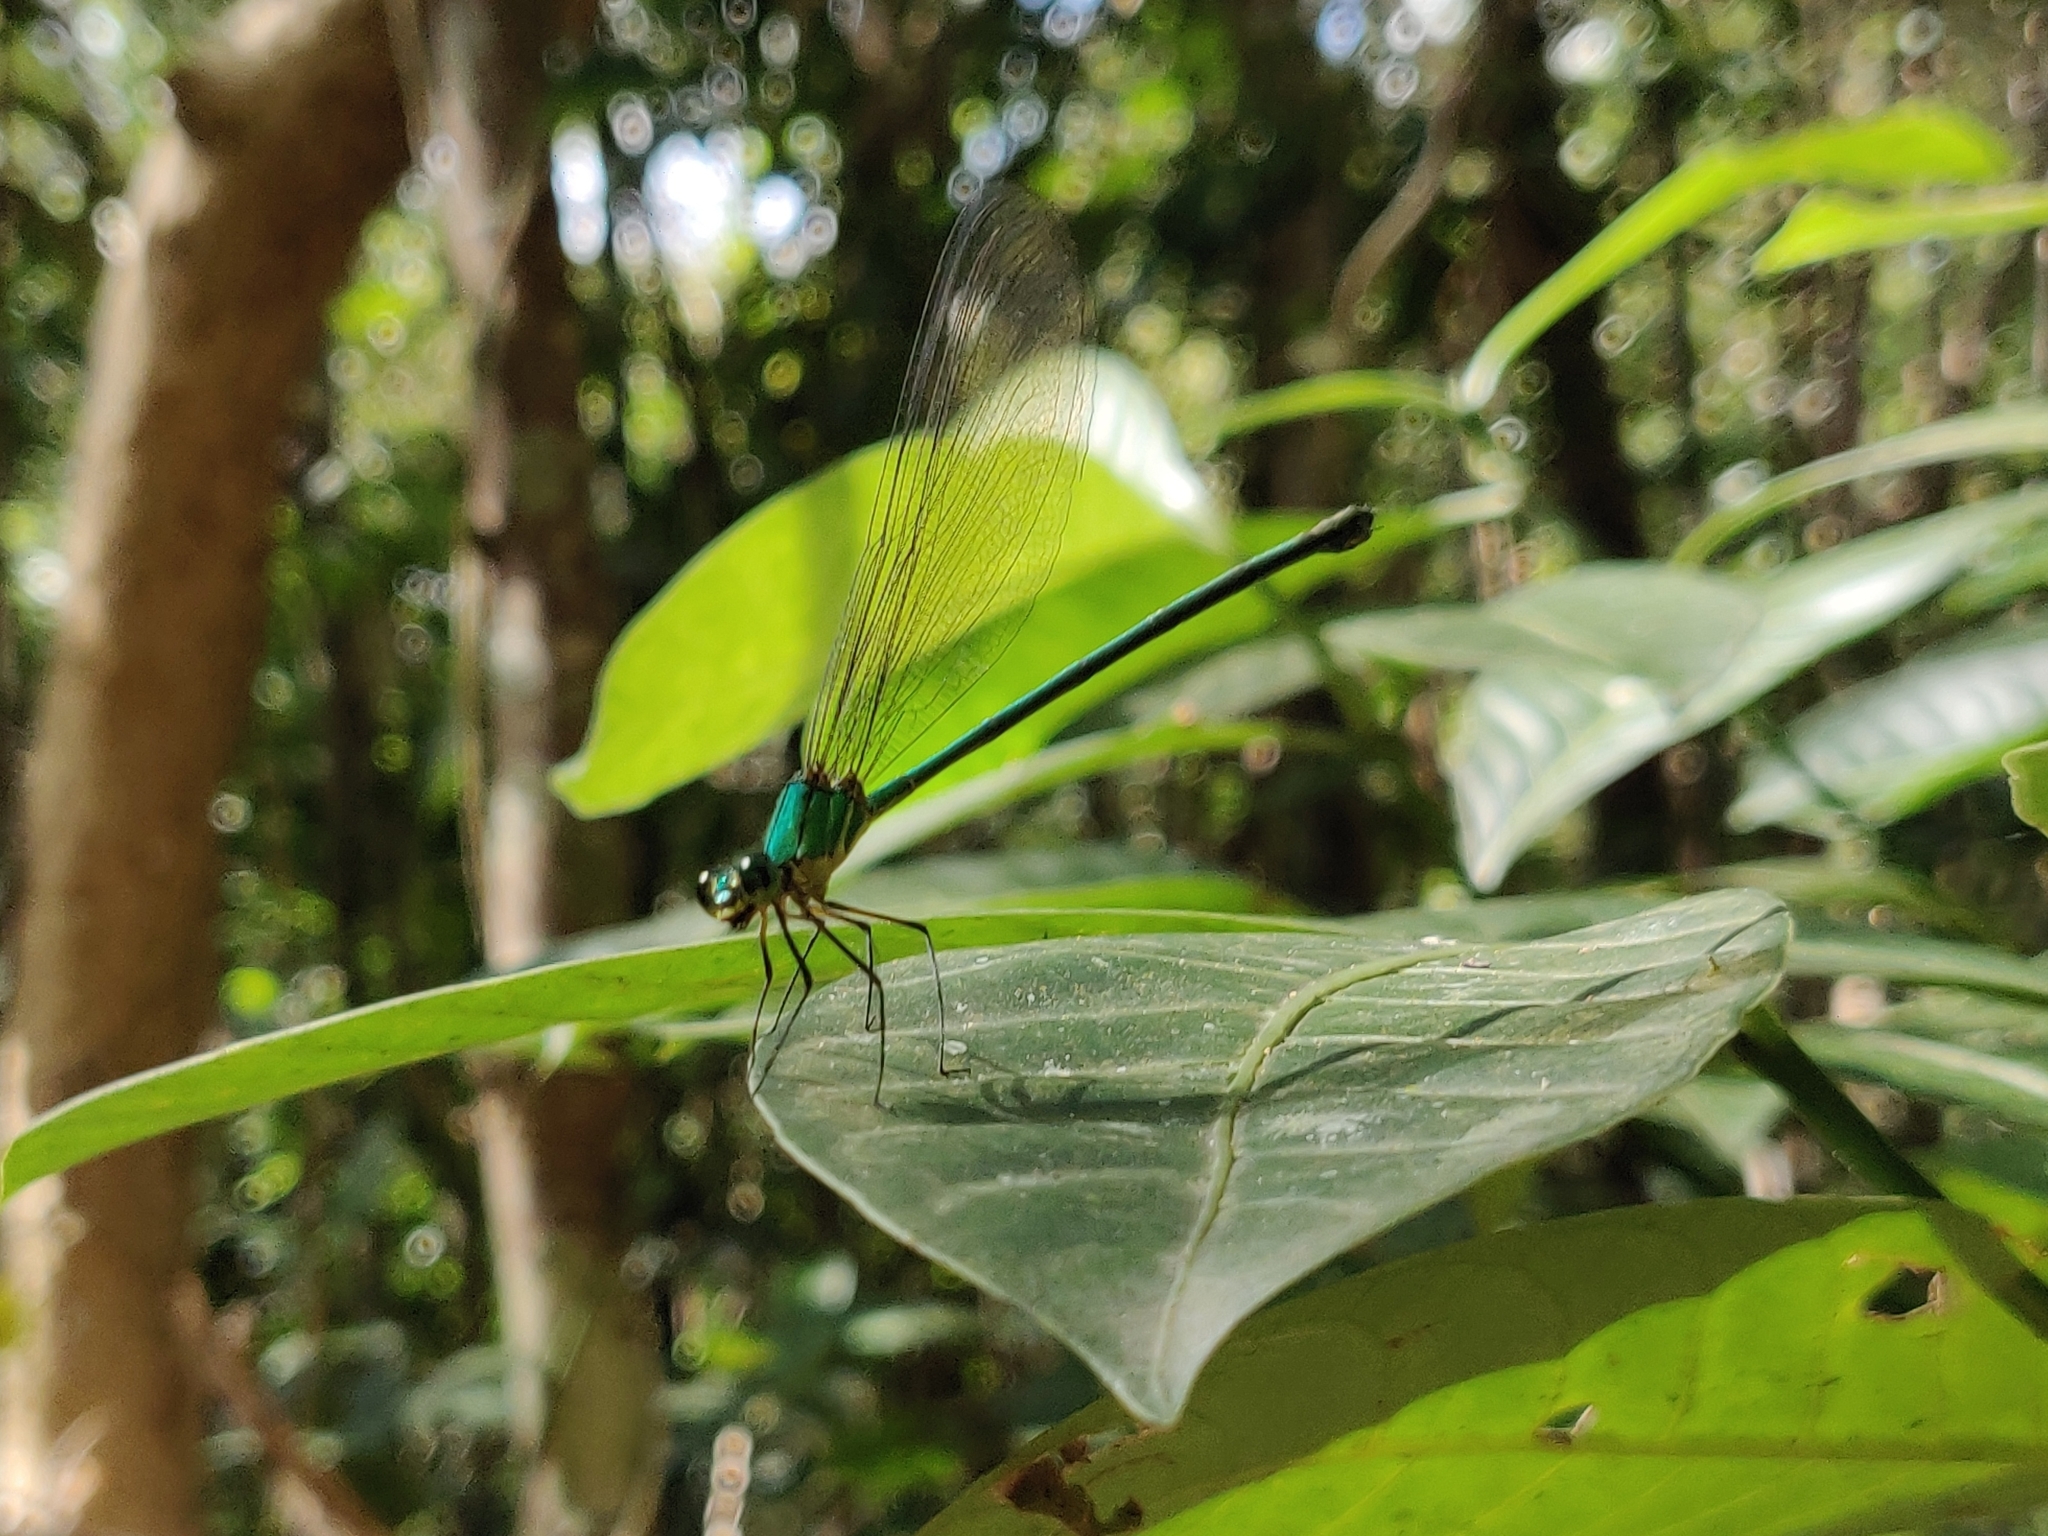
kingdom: Animalia
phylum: Arthropoda
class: Insecta
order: Odonata
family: Calopterygidae
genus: Vestalis
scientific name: Vestalis gracilis
